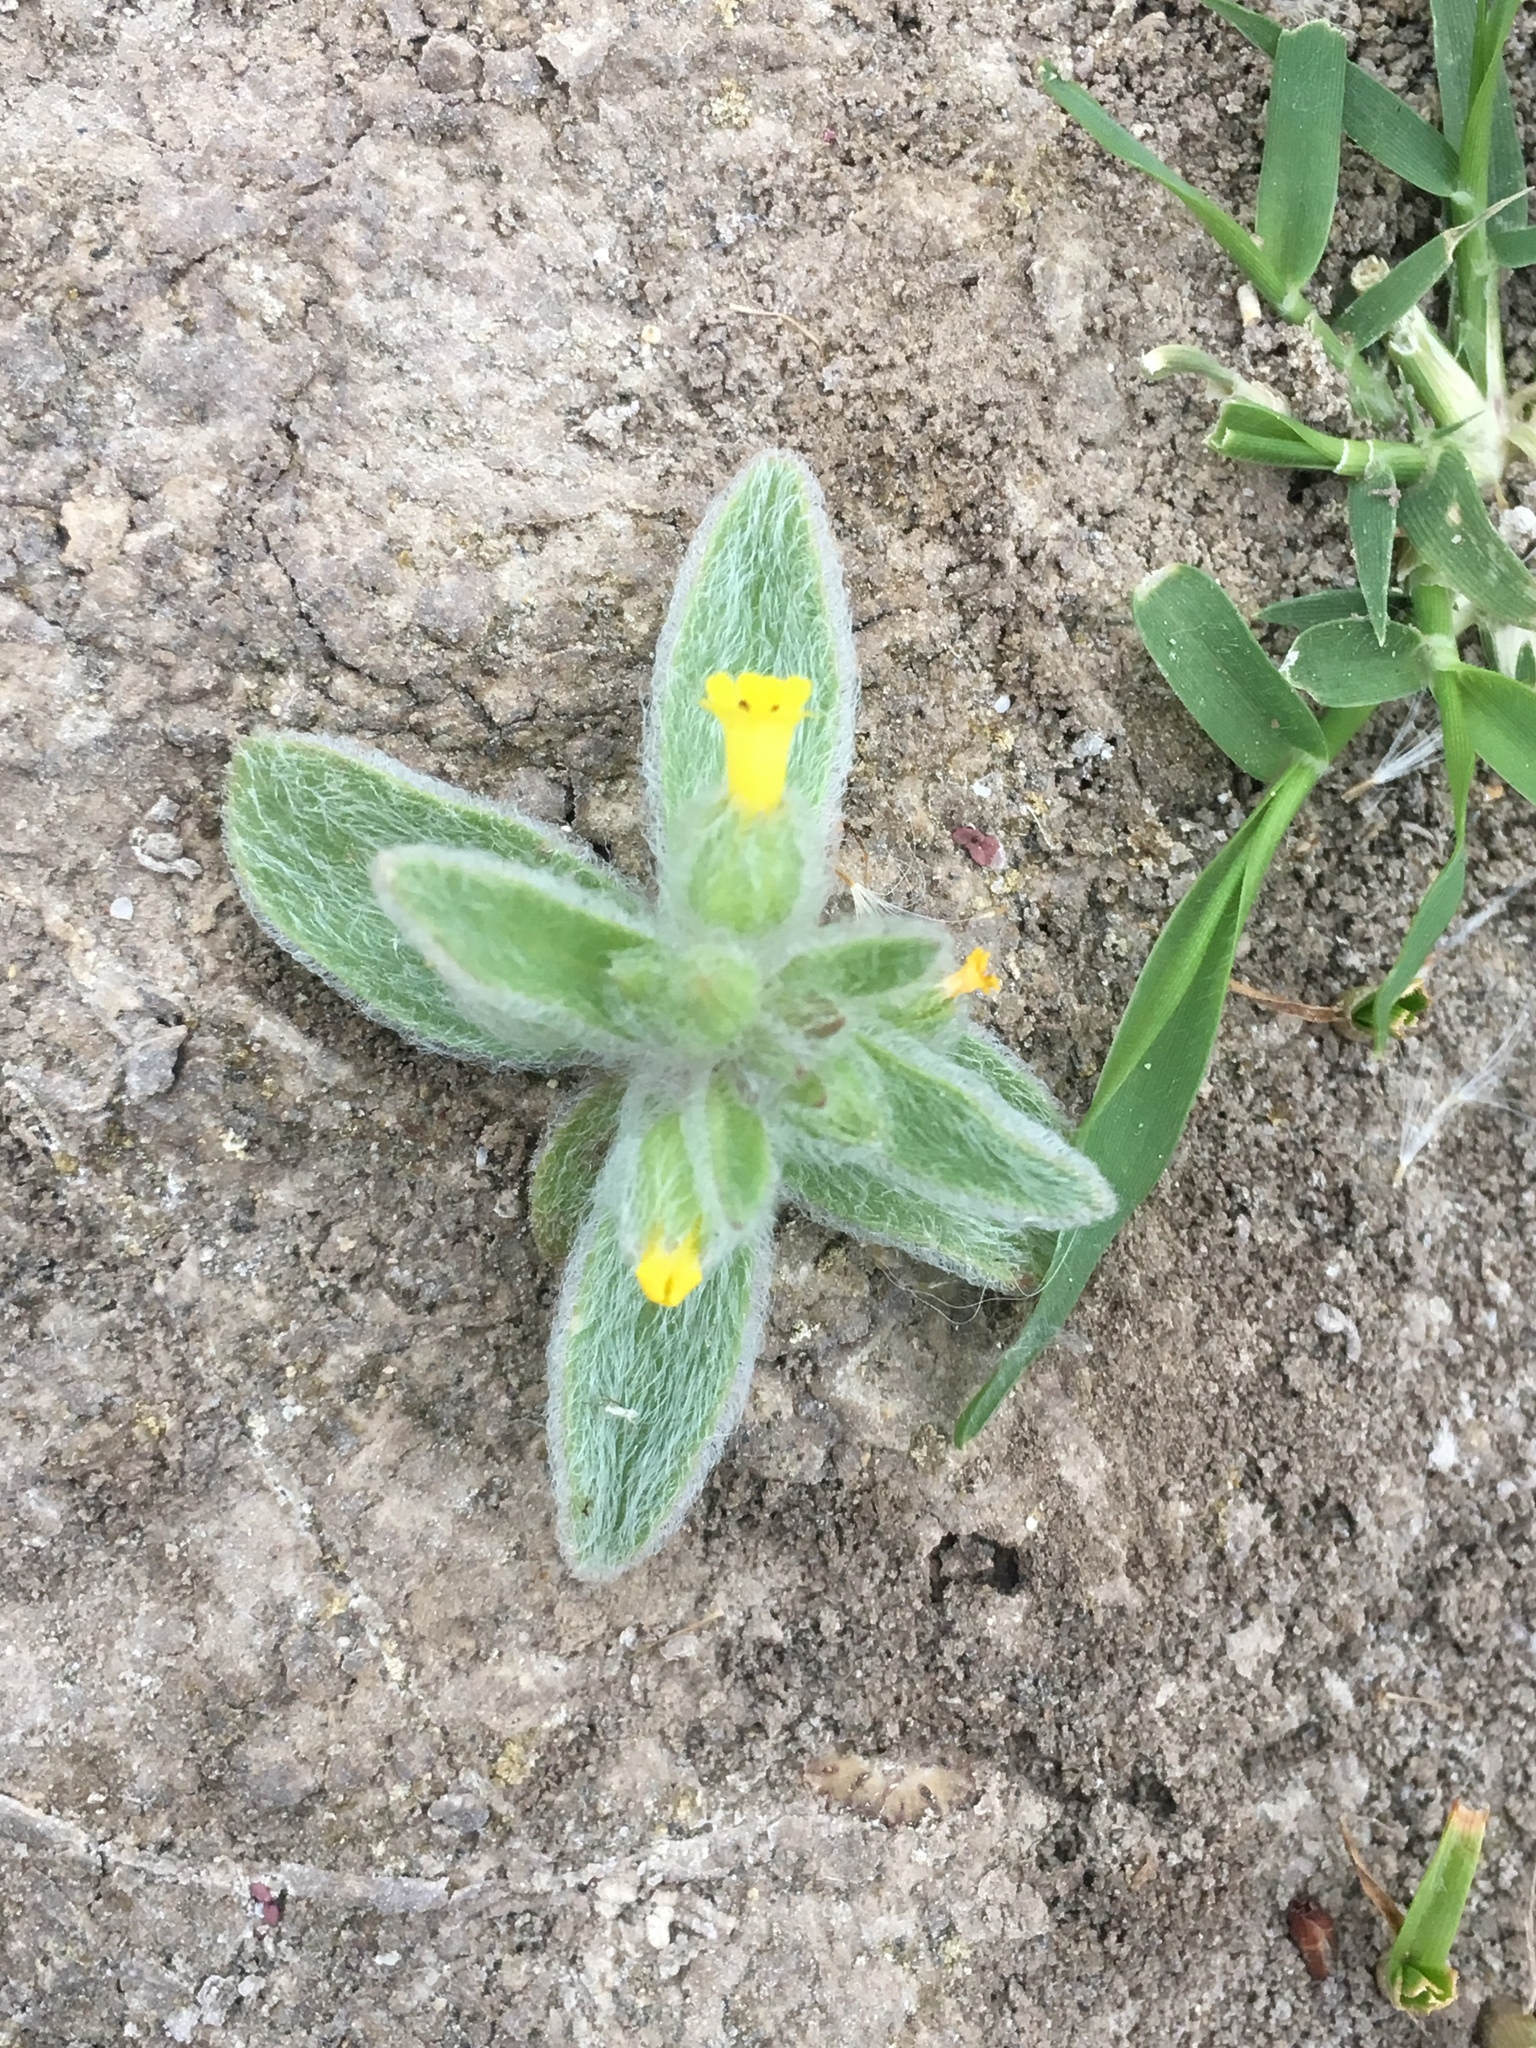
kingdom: Plantae
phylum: Tracheophyta
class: Magnoliopsida
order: Lamiales
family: Phrymaceae
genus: Mimetanthe
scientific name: Mimetanthe pilosa
